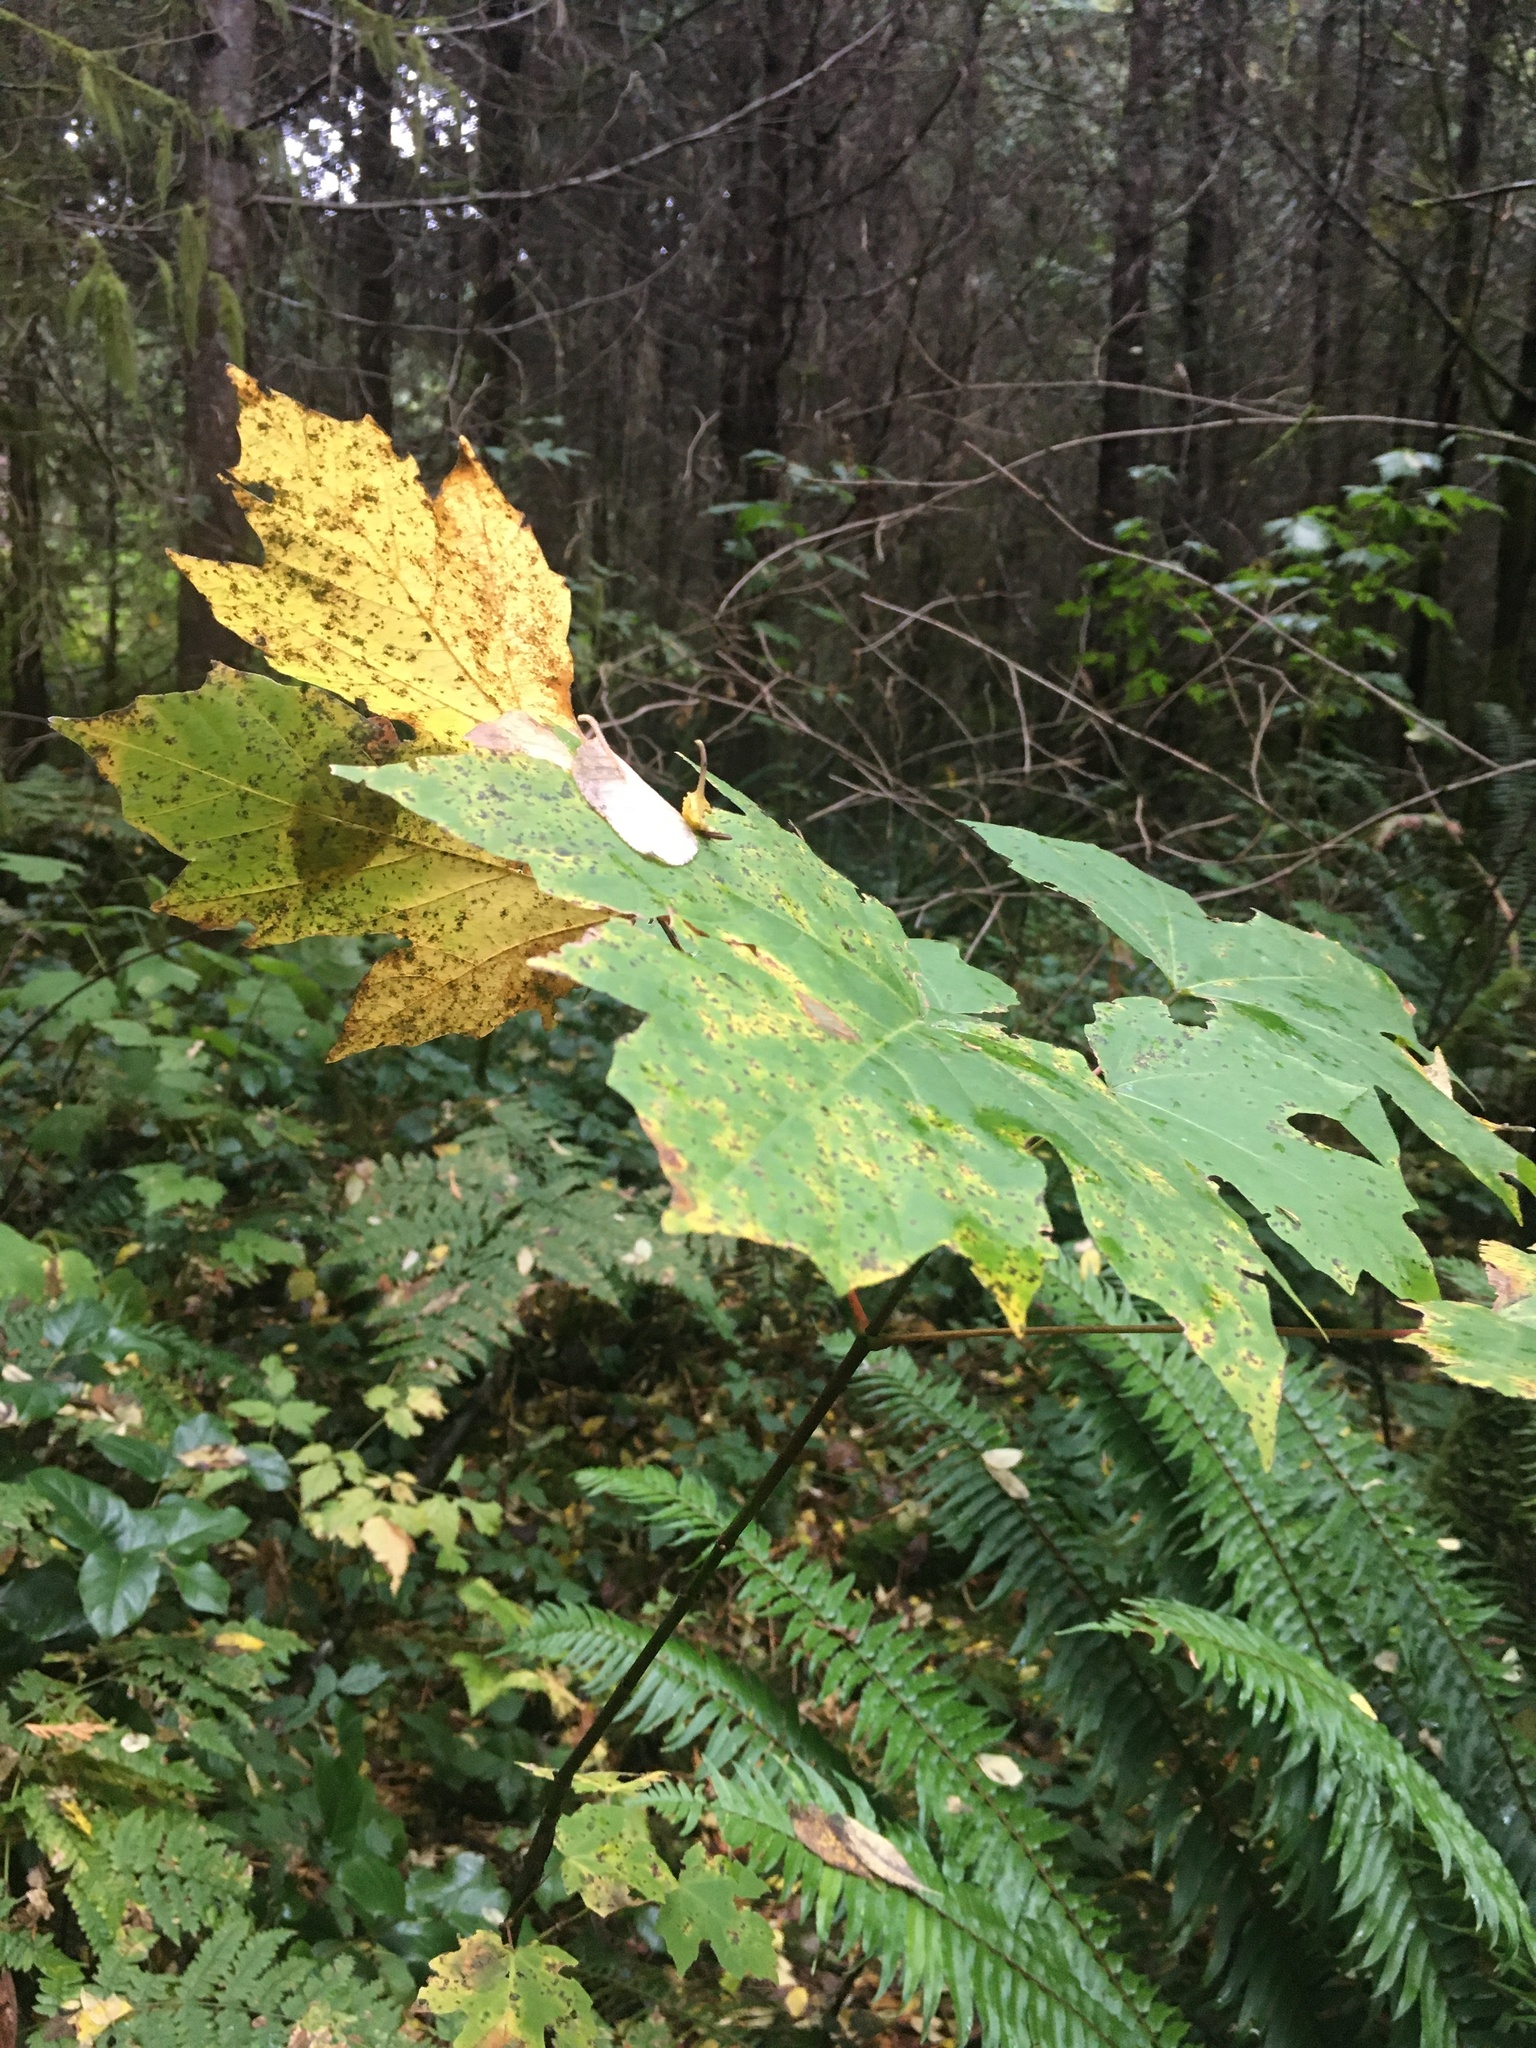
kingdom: Plantae
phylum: Tracheophyta
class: Magnoliopsida
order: Sapindales
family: Sapindaceae
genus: Acer
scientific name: Acer macrophyllum
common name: Oregon maple
